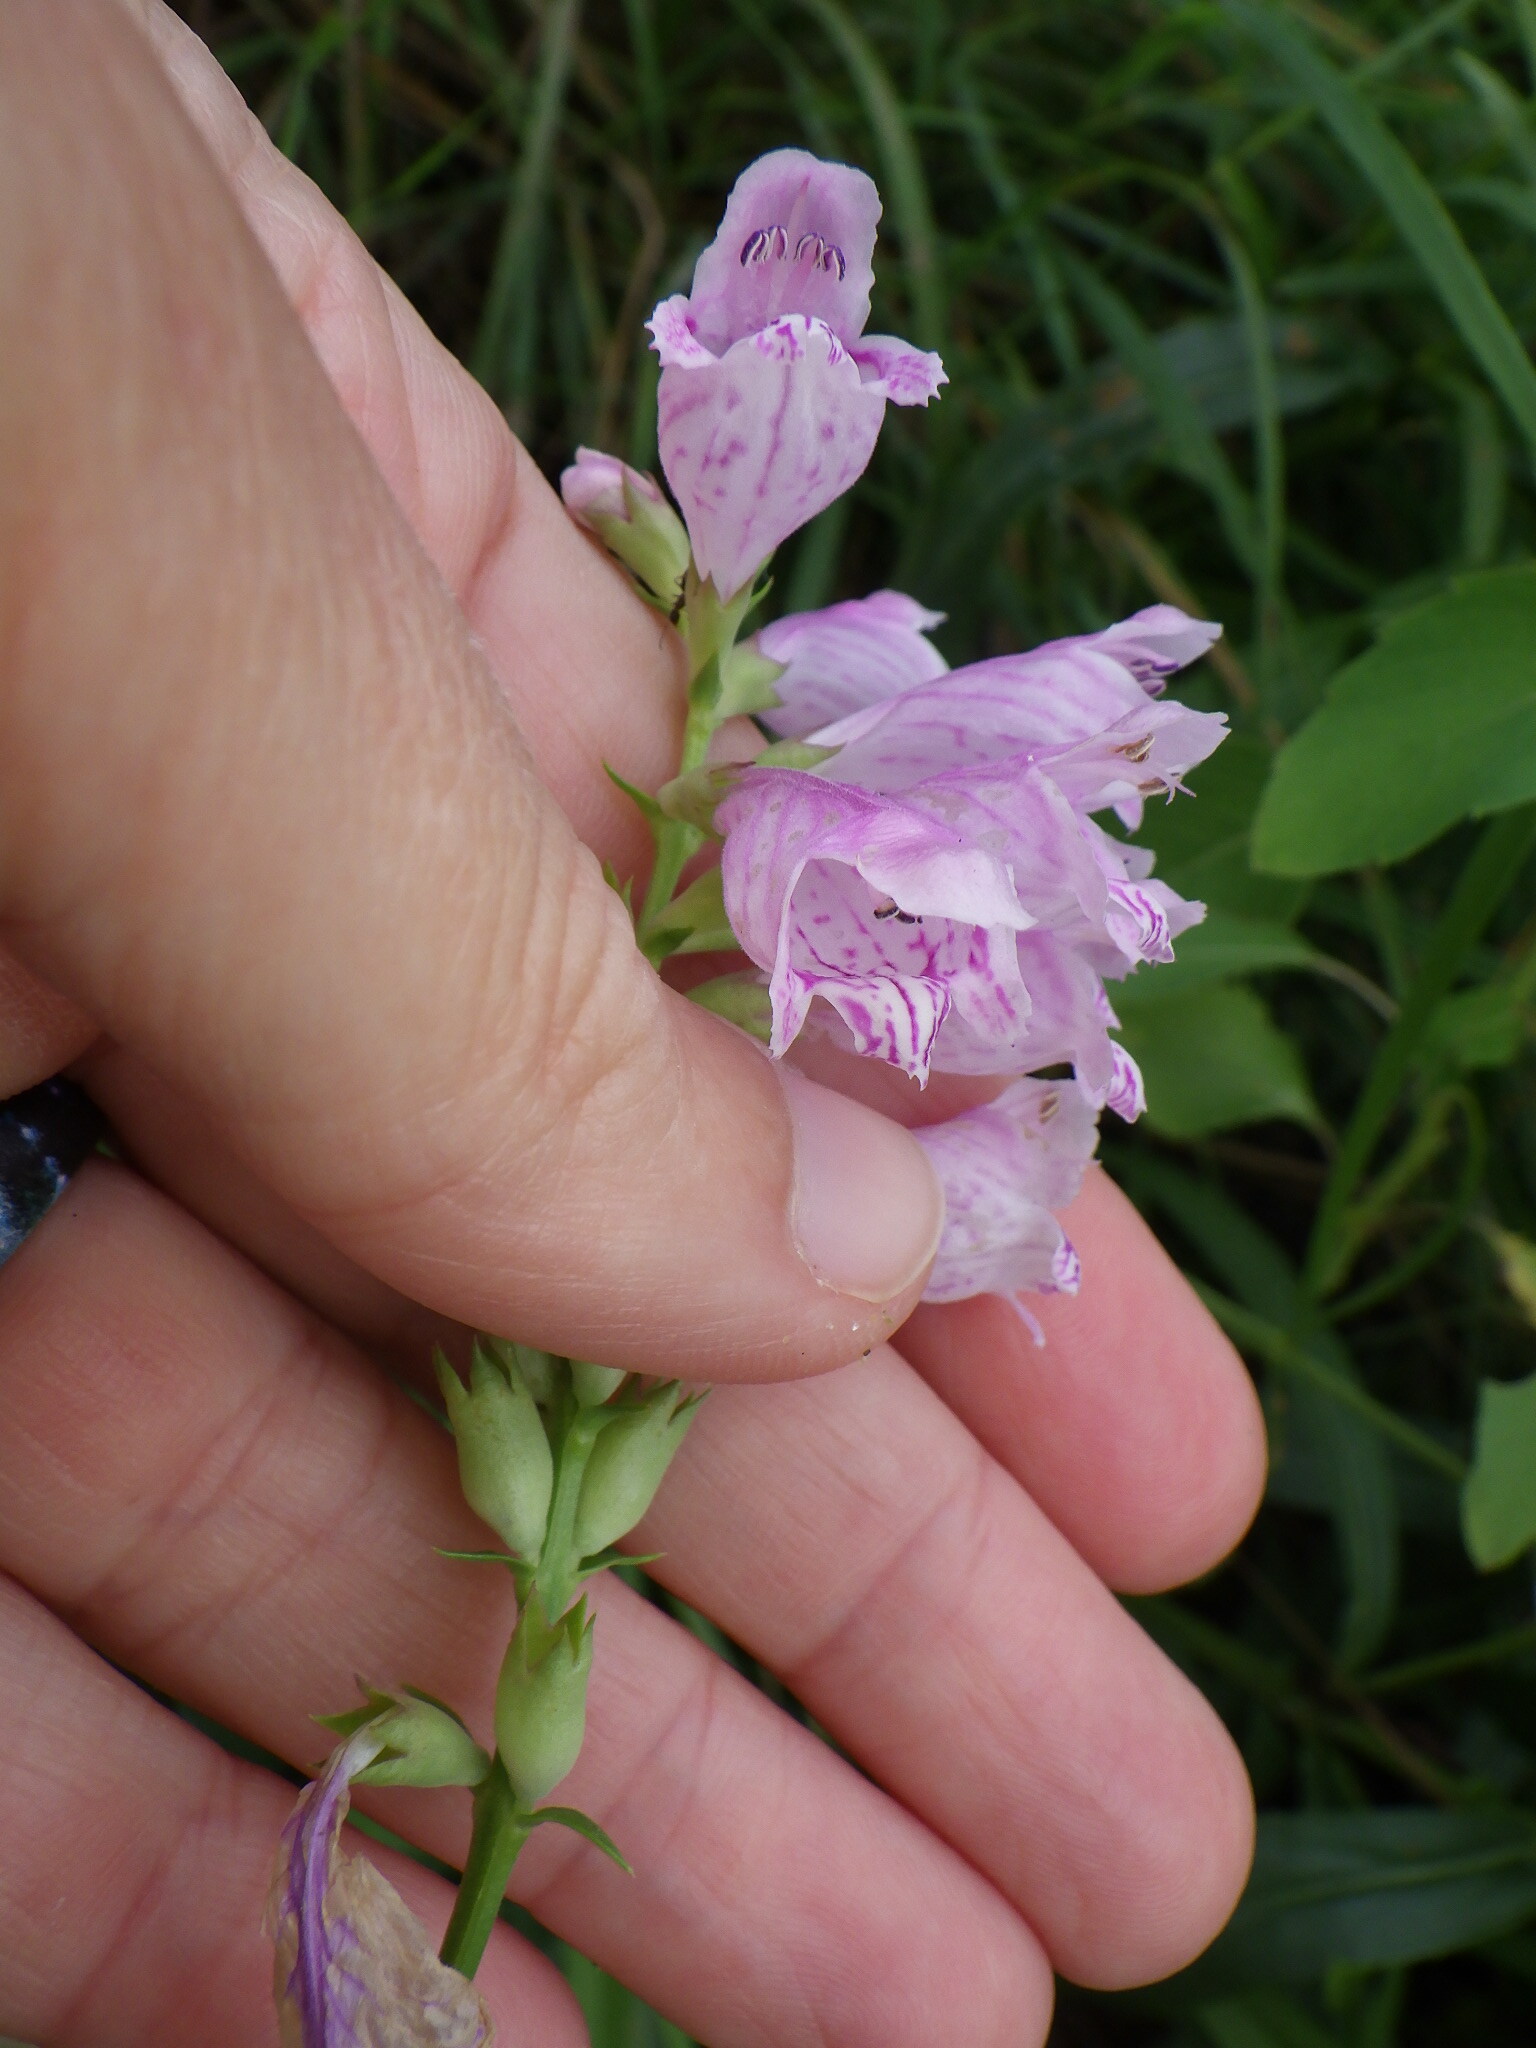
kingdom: Plantae
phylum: Tracheophyta
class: Magnoliopsida
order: Lamiales
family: Lamiaceae
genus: Physostegia
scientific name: Physostegia virginiana
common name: Obedient-plant
